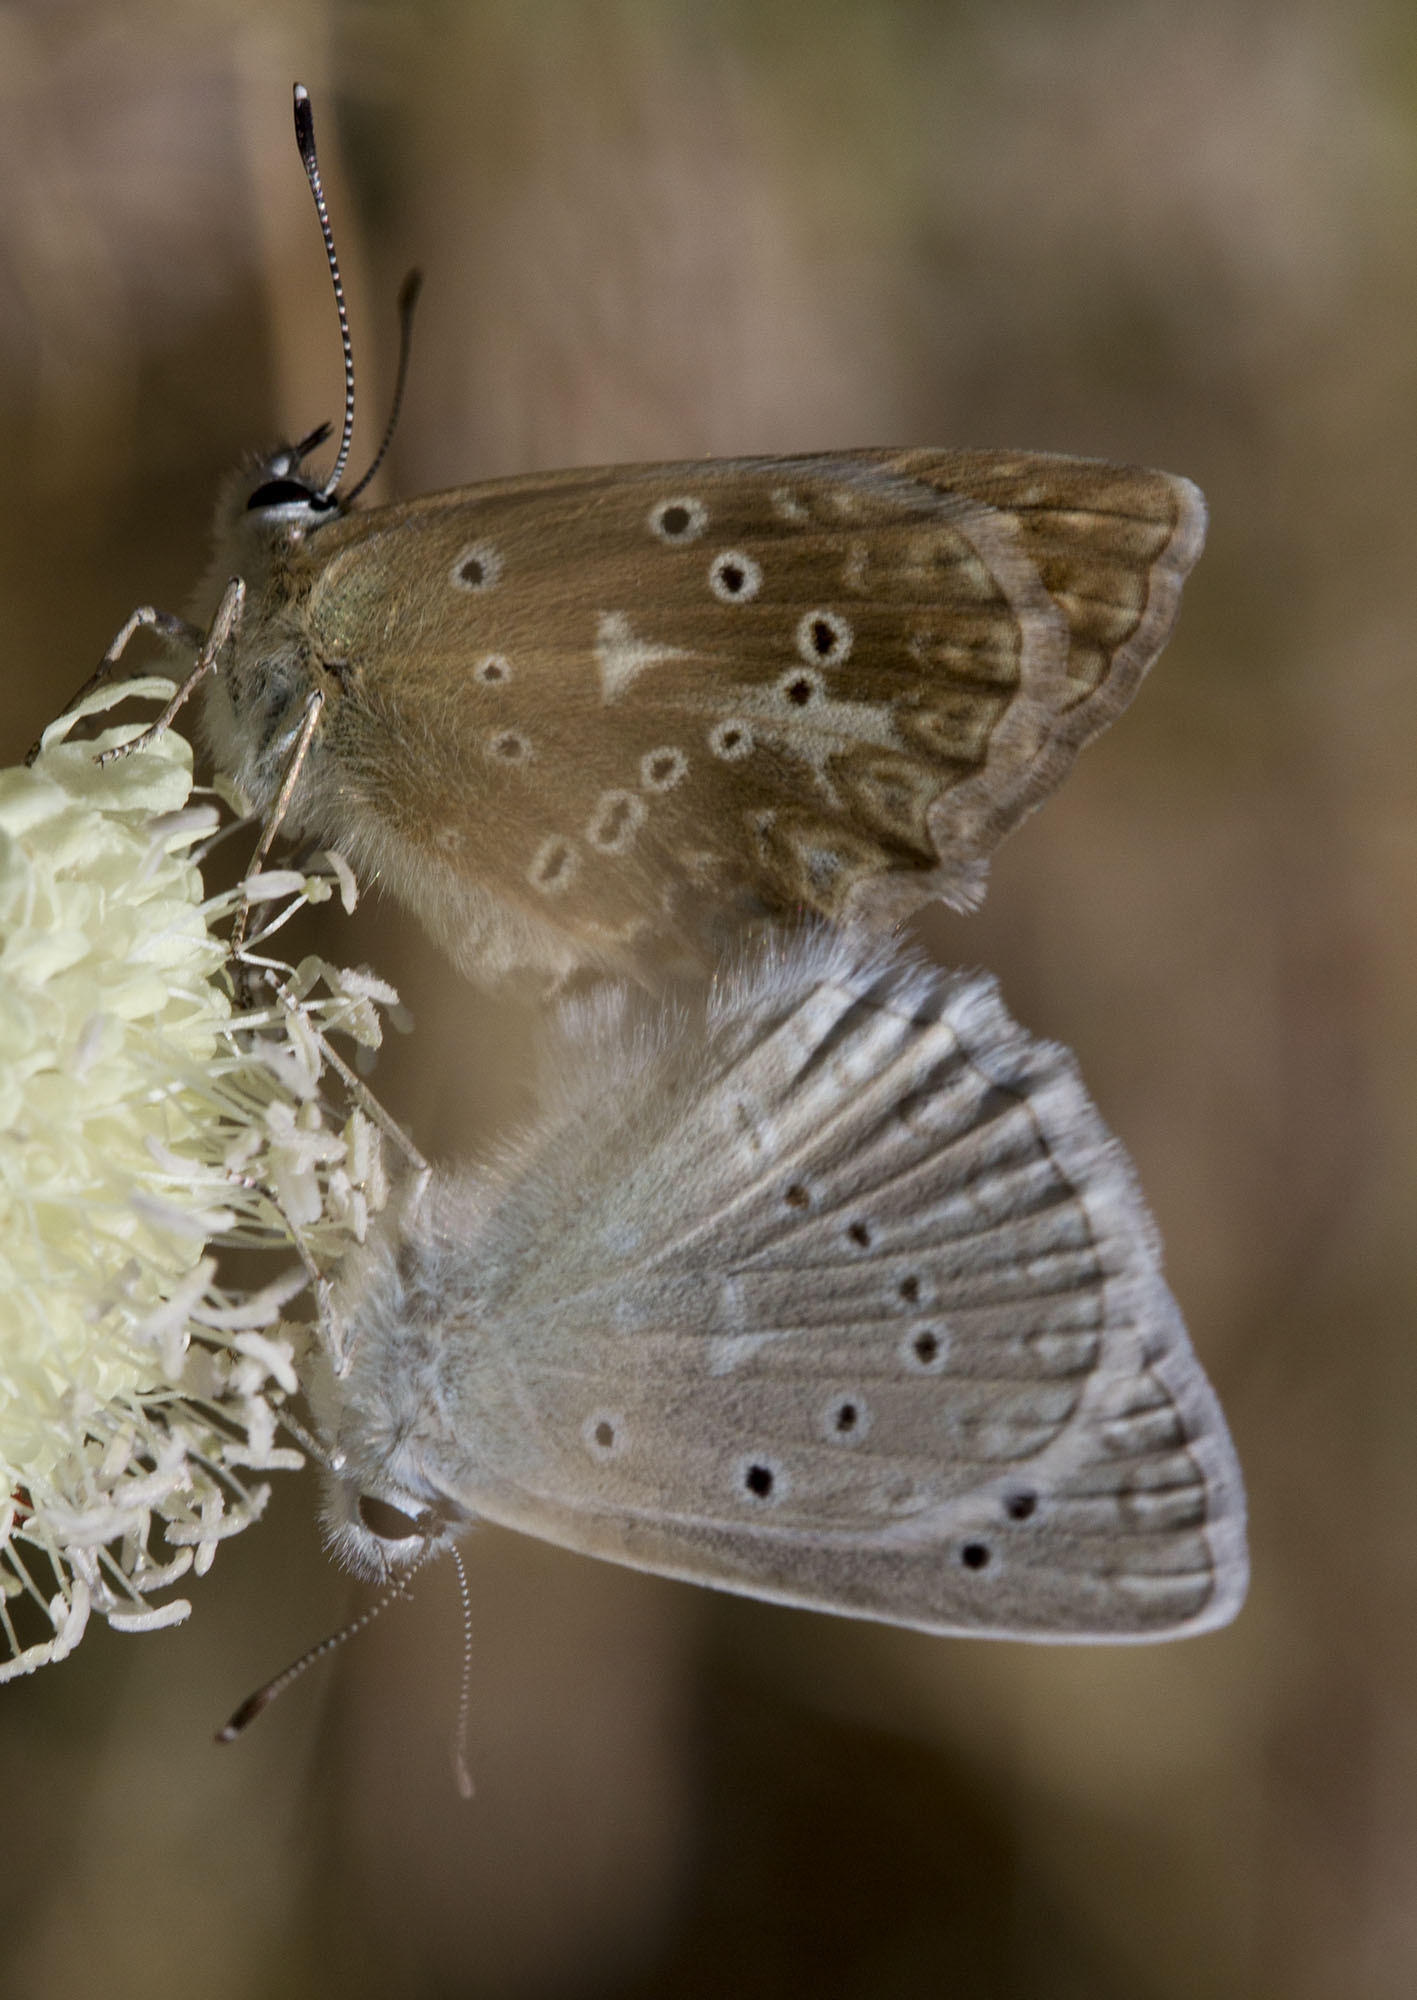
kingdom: Animalia
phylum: Arthropoda
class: Insecta
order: Lepidoptera
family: Lycaenidae
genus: Polyommatus
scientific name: Polyommatus daphnis
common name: Meleager's blue
